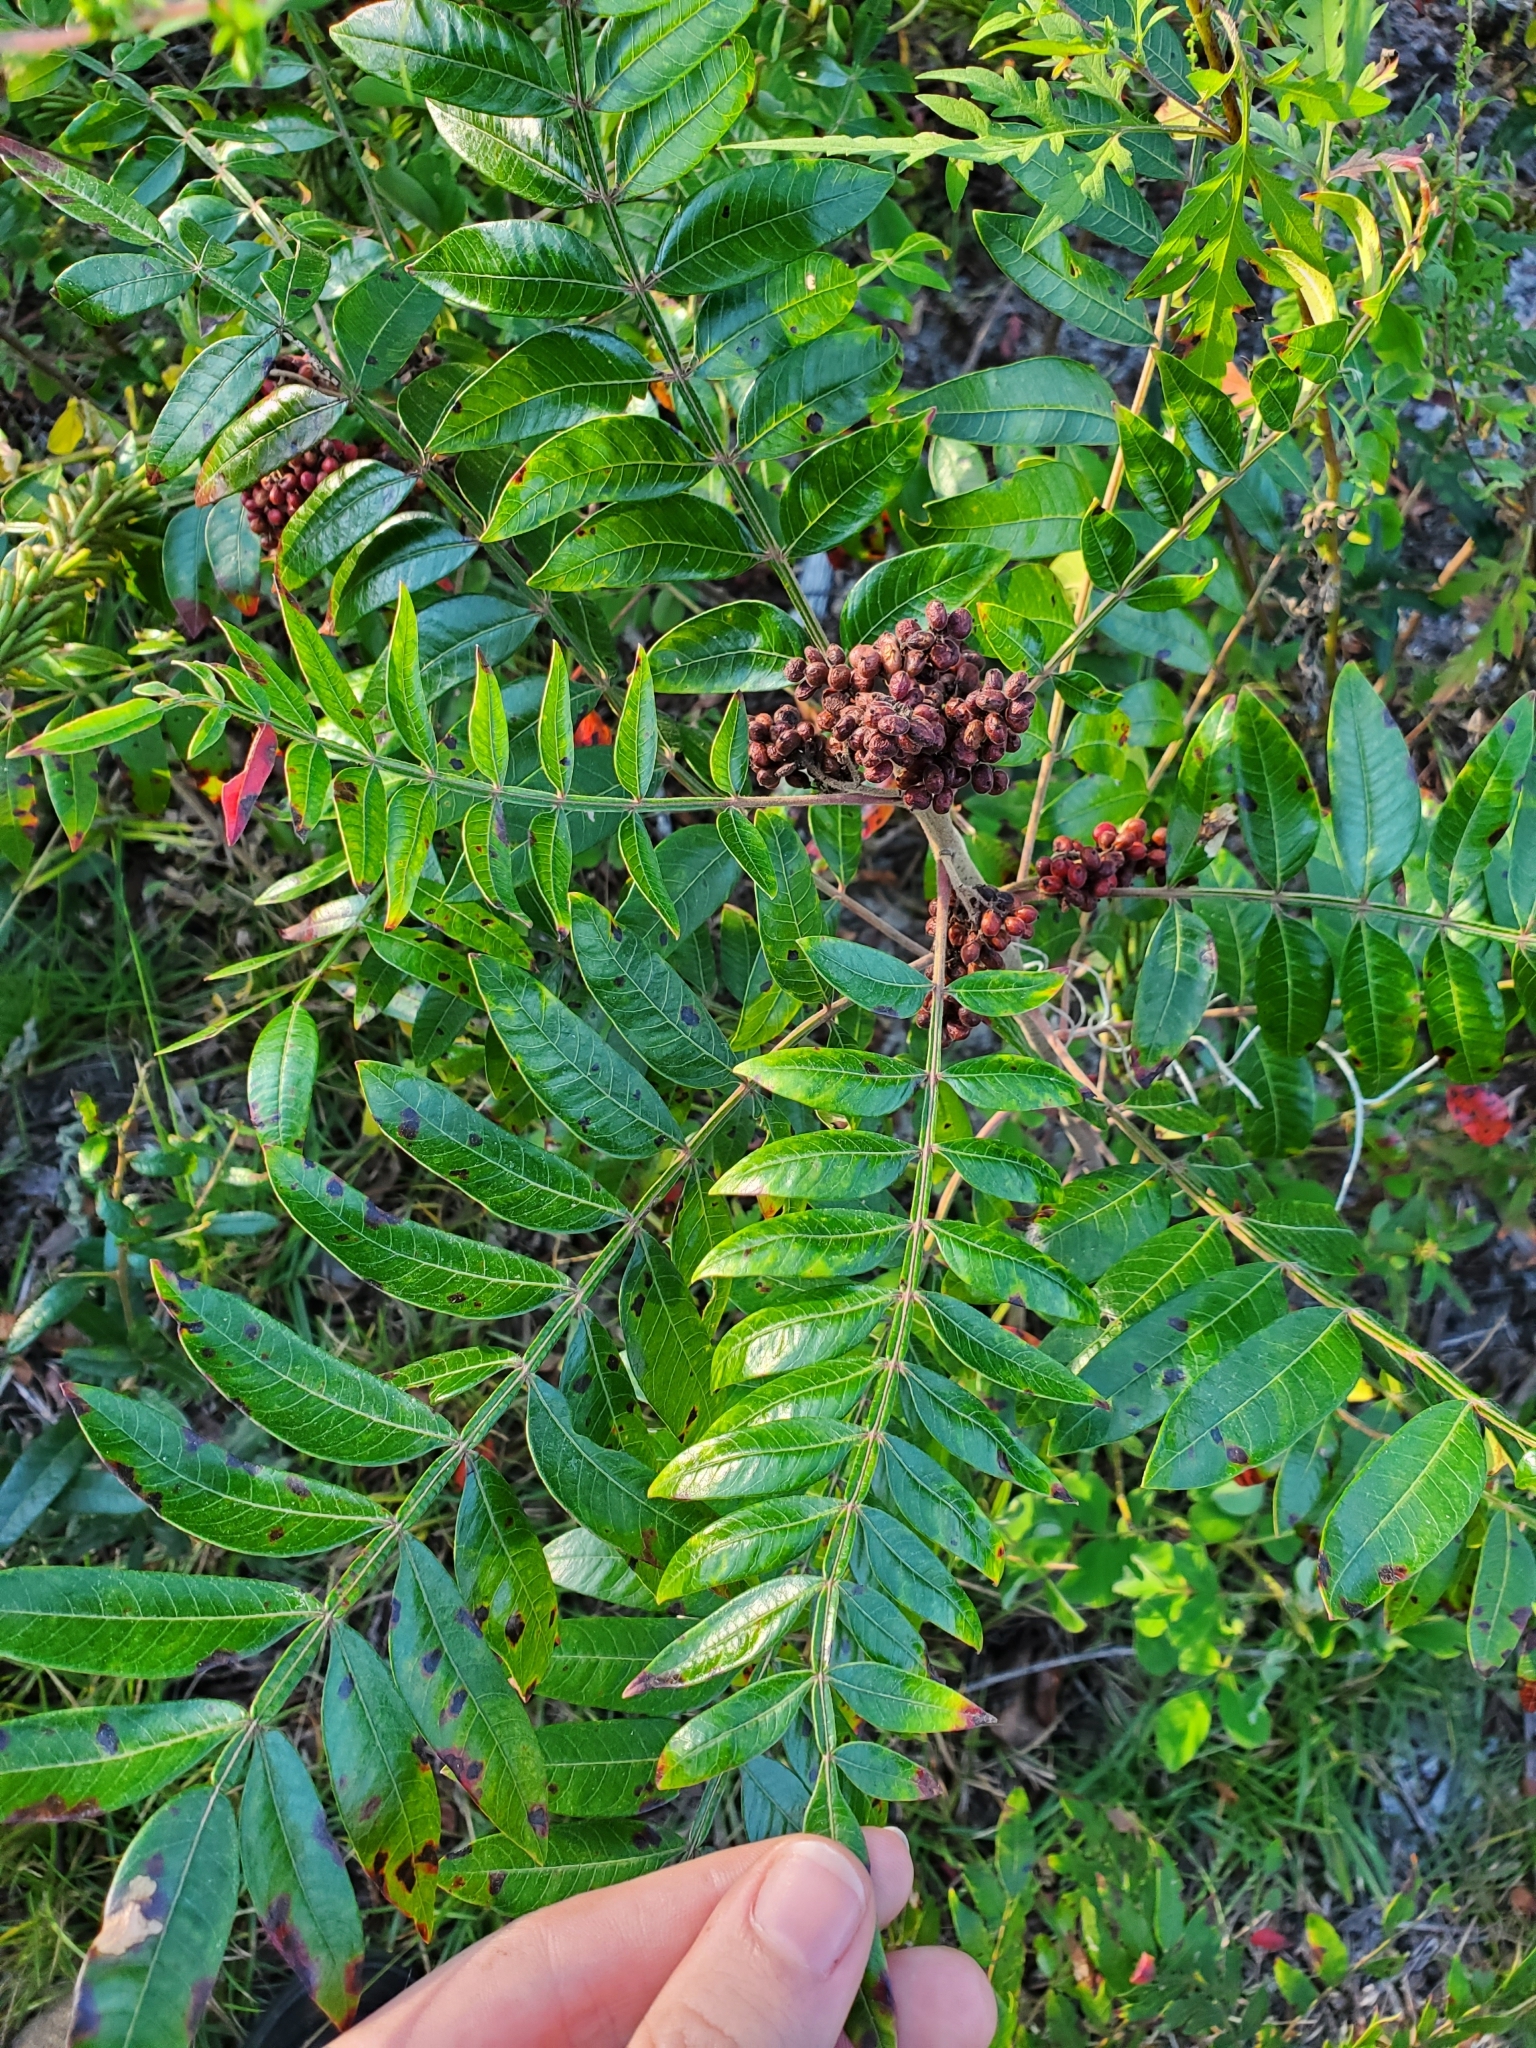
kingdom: Plantae
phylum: Tracheophyta
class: Magnoliopsida
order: Sapindales
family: Anacardiaceae
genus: Rhus
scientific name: Rhus copallina
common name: Shining sumac
